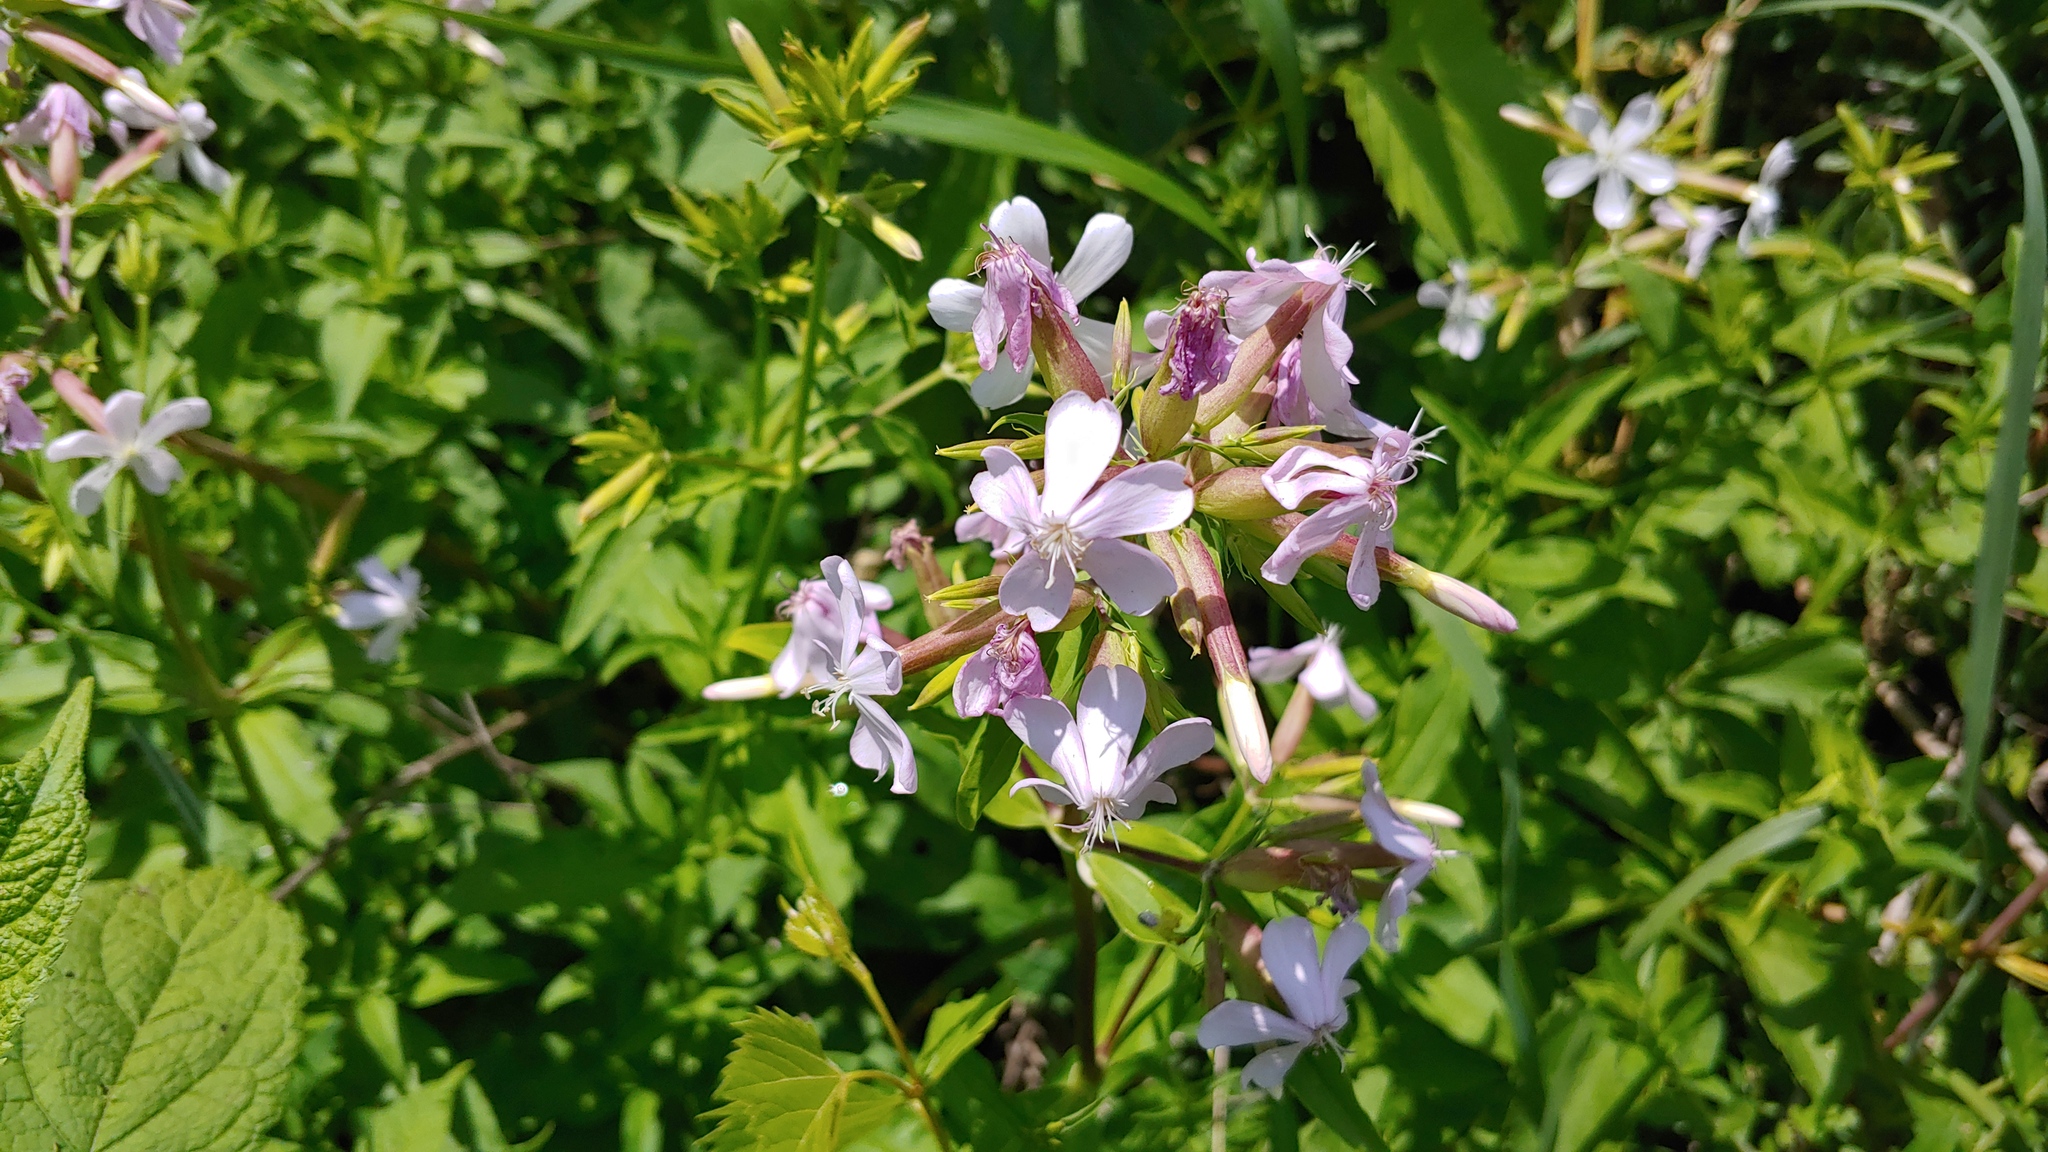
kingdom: Plantae
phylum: Tracheophyta
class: Magnoliopsida
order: Caryophyllales
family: Caryophyllaceae
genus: Saponaria
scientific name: Saponaria officinalis
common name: Soapwort
